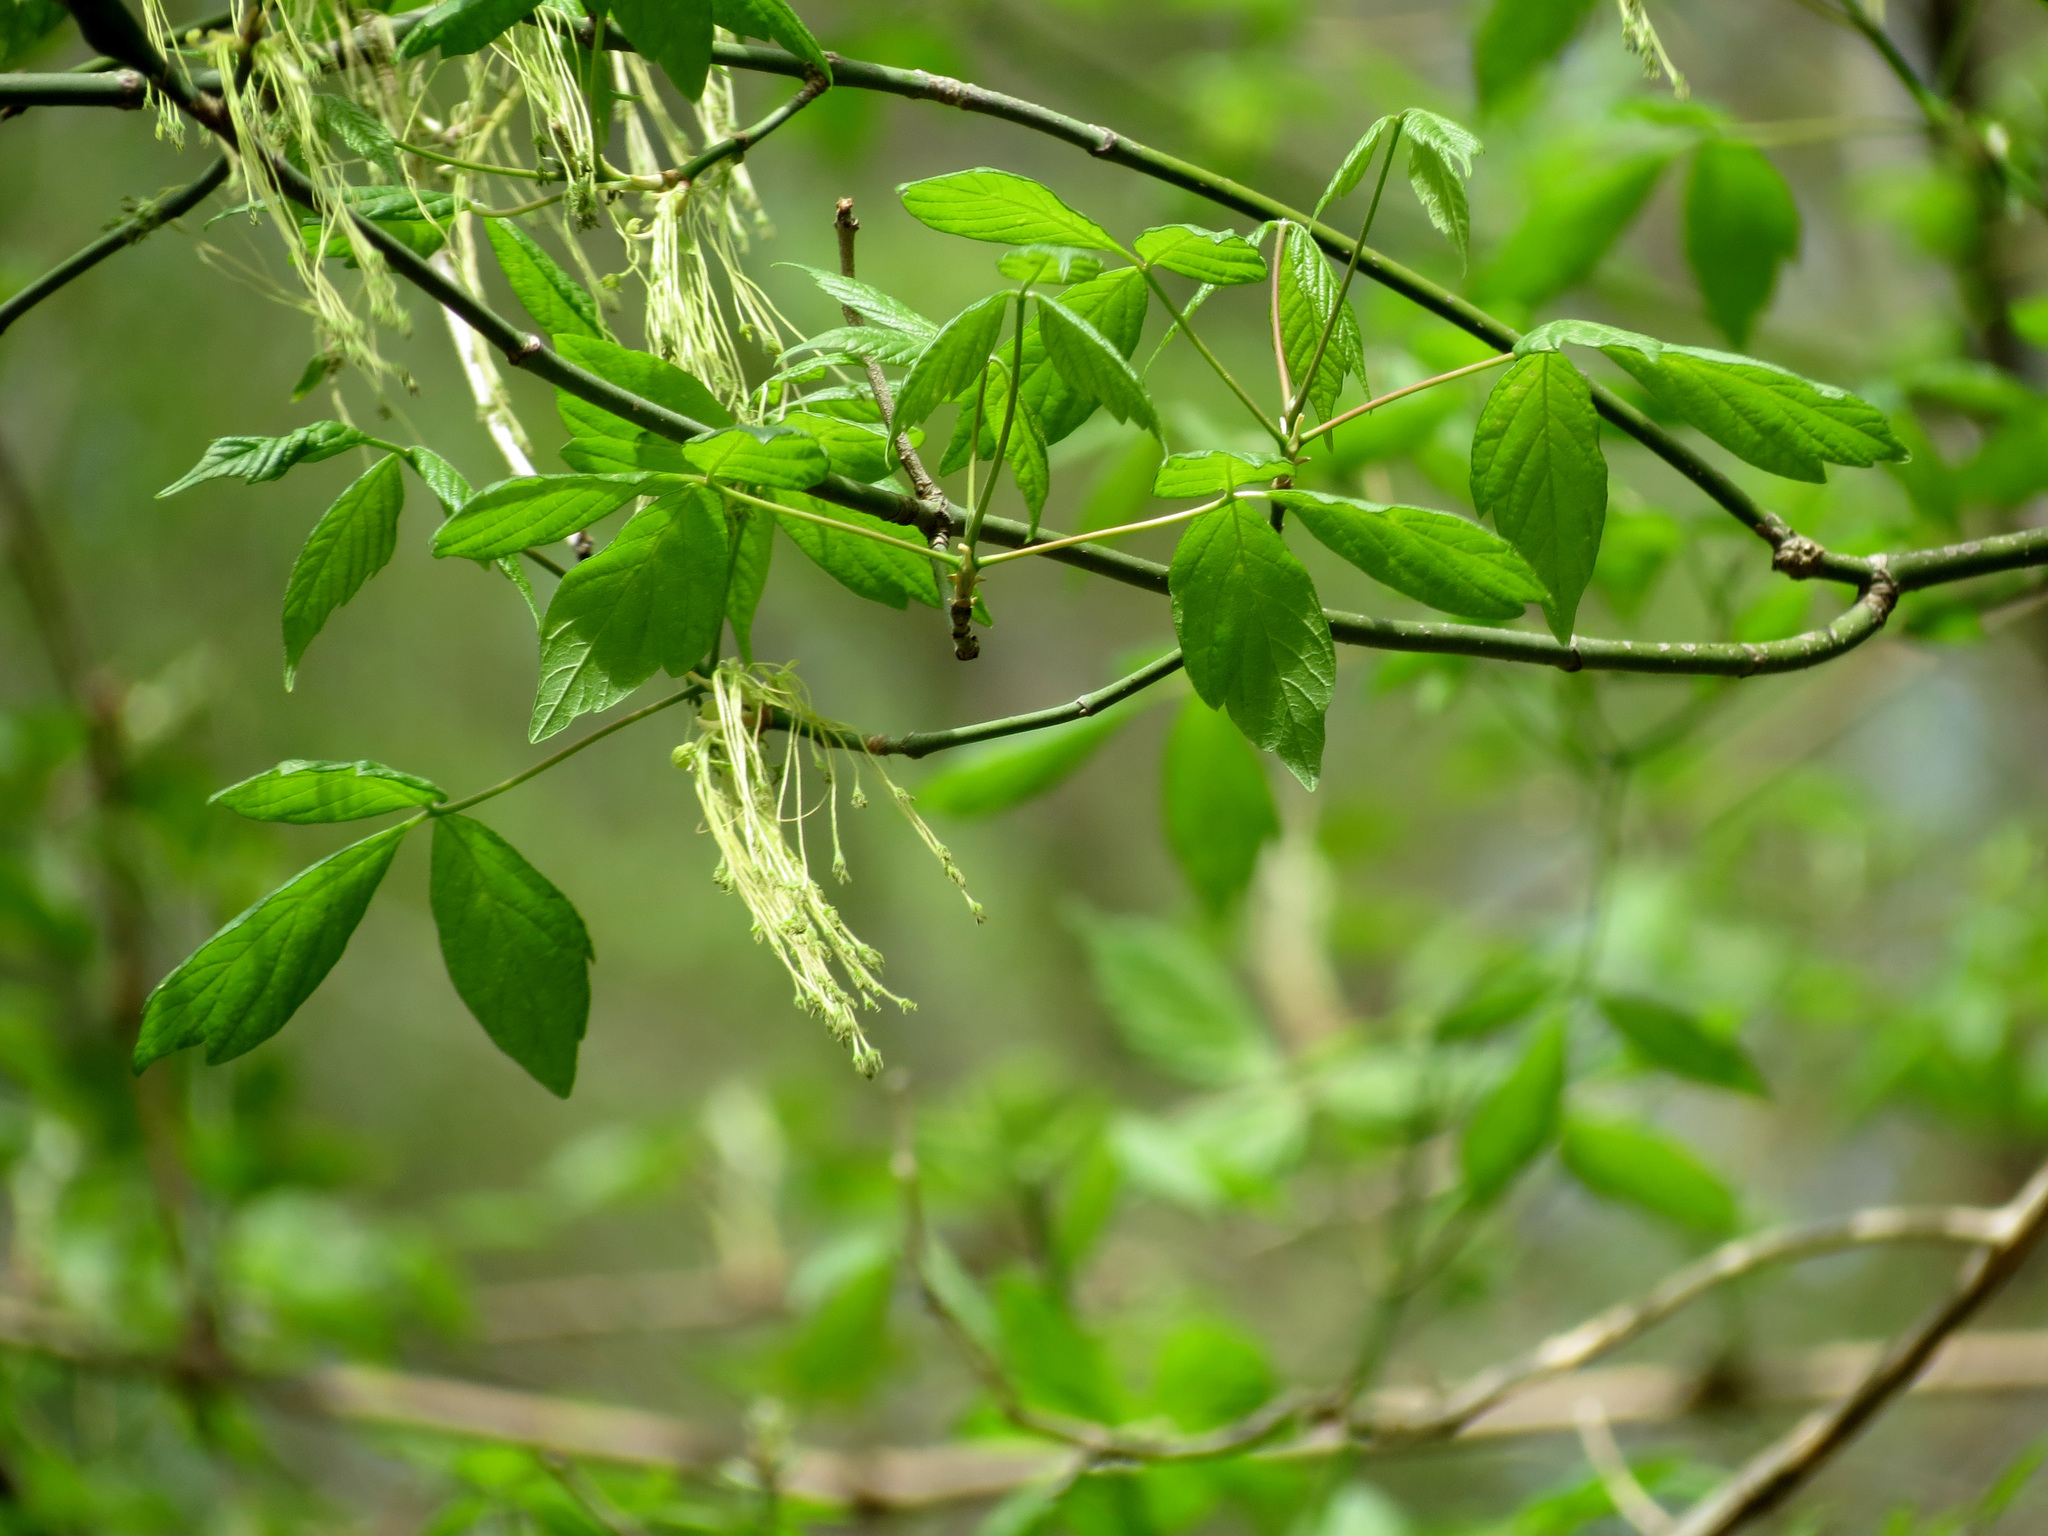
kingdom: Plantae
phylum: Tracheophyta
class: Magnoliopsida
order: Sapindales
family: Sapindaceae
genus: Acer
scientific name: Acer negundo
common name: Ashleaf maple
